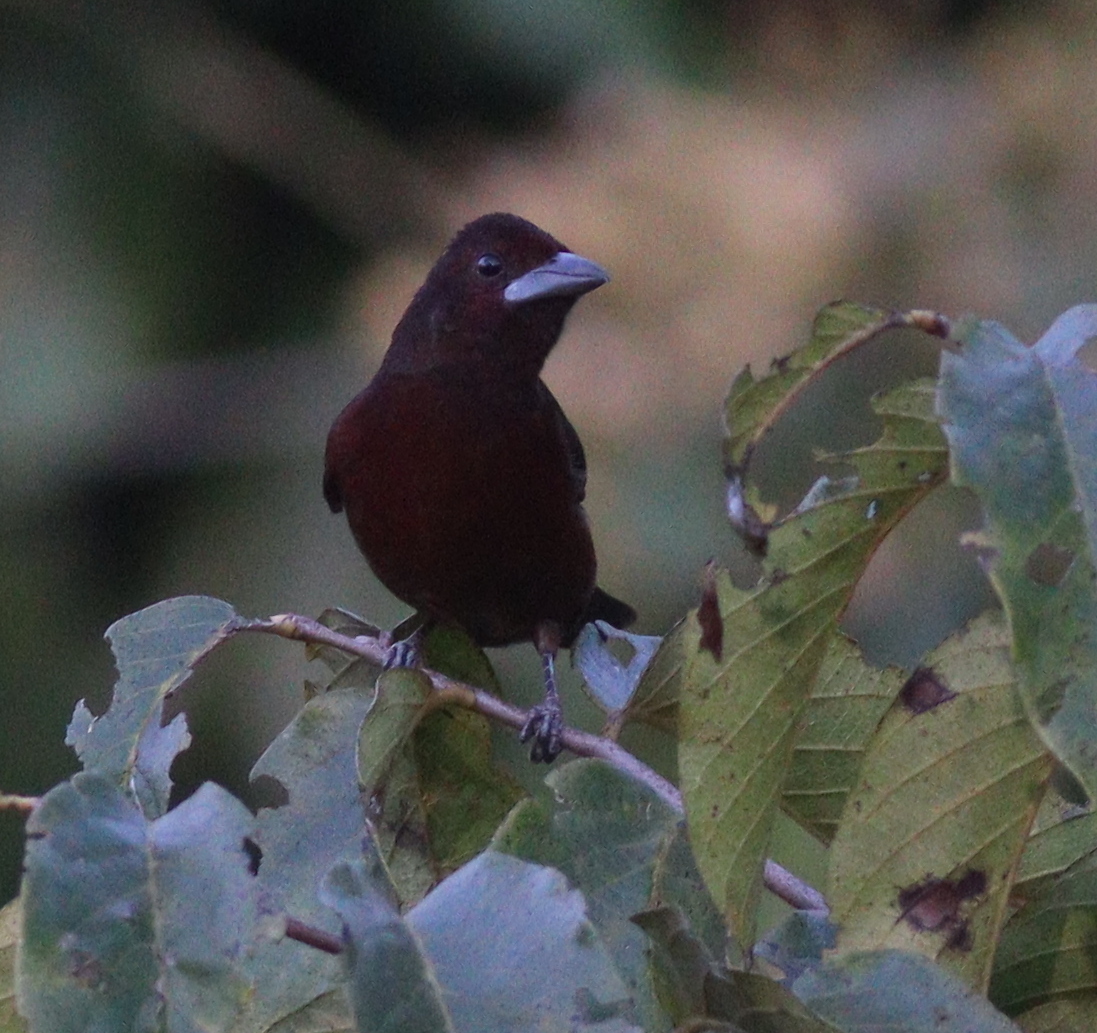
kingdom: Animalia
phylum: Chordata
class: Aves
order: Passeriformes
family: Thraupidae
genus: Ramphocelus
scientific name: Ramphocelus carbo
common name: Silver-beaked tanager
